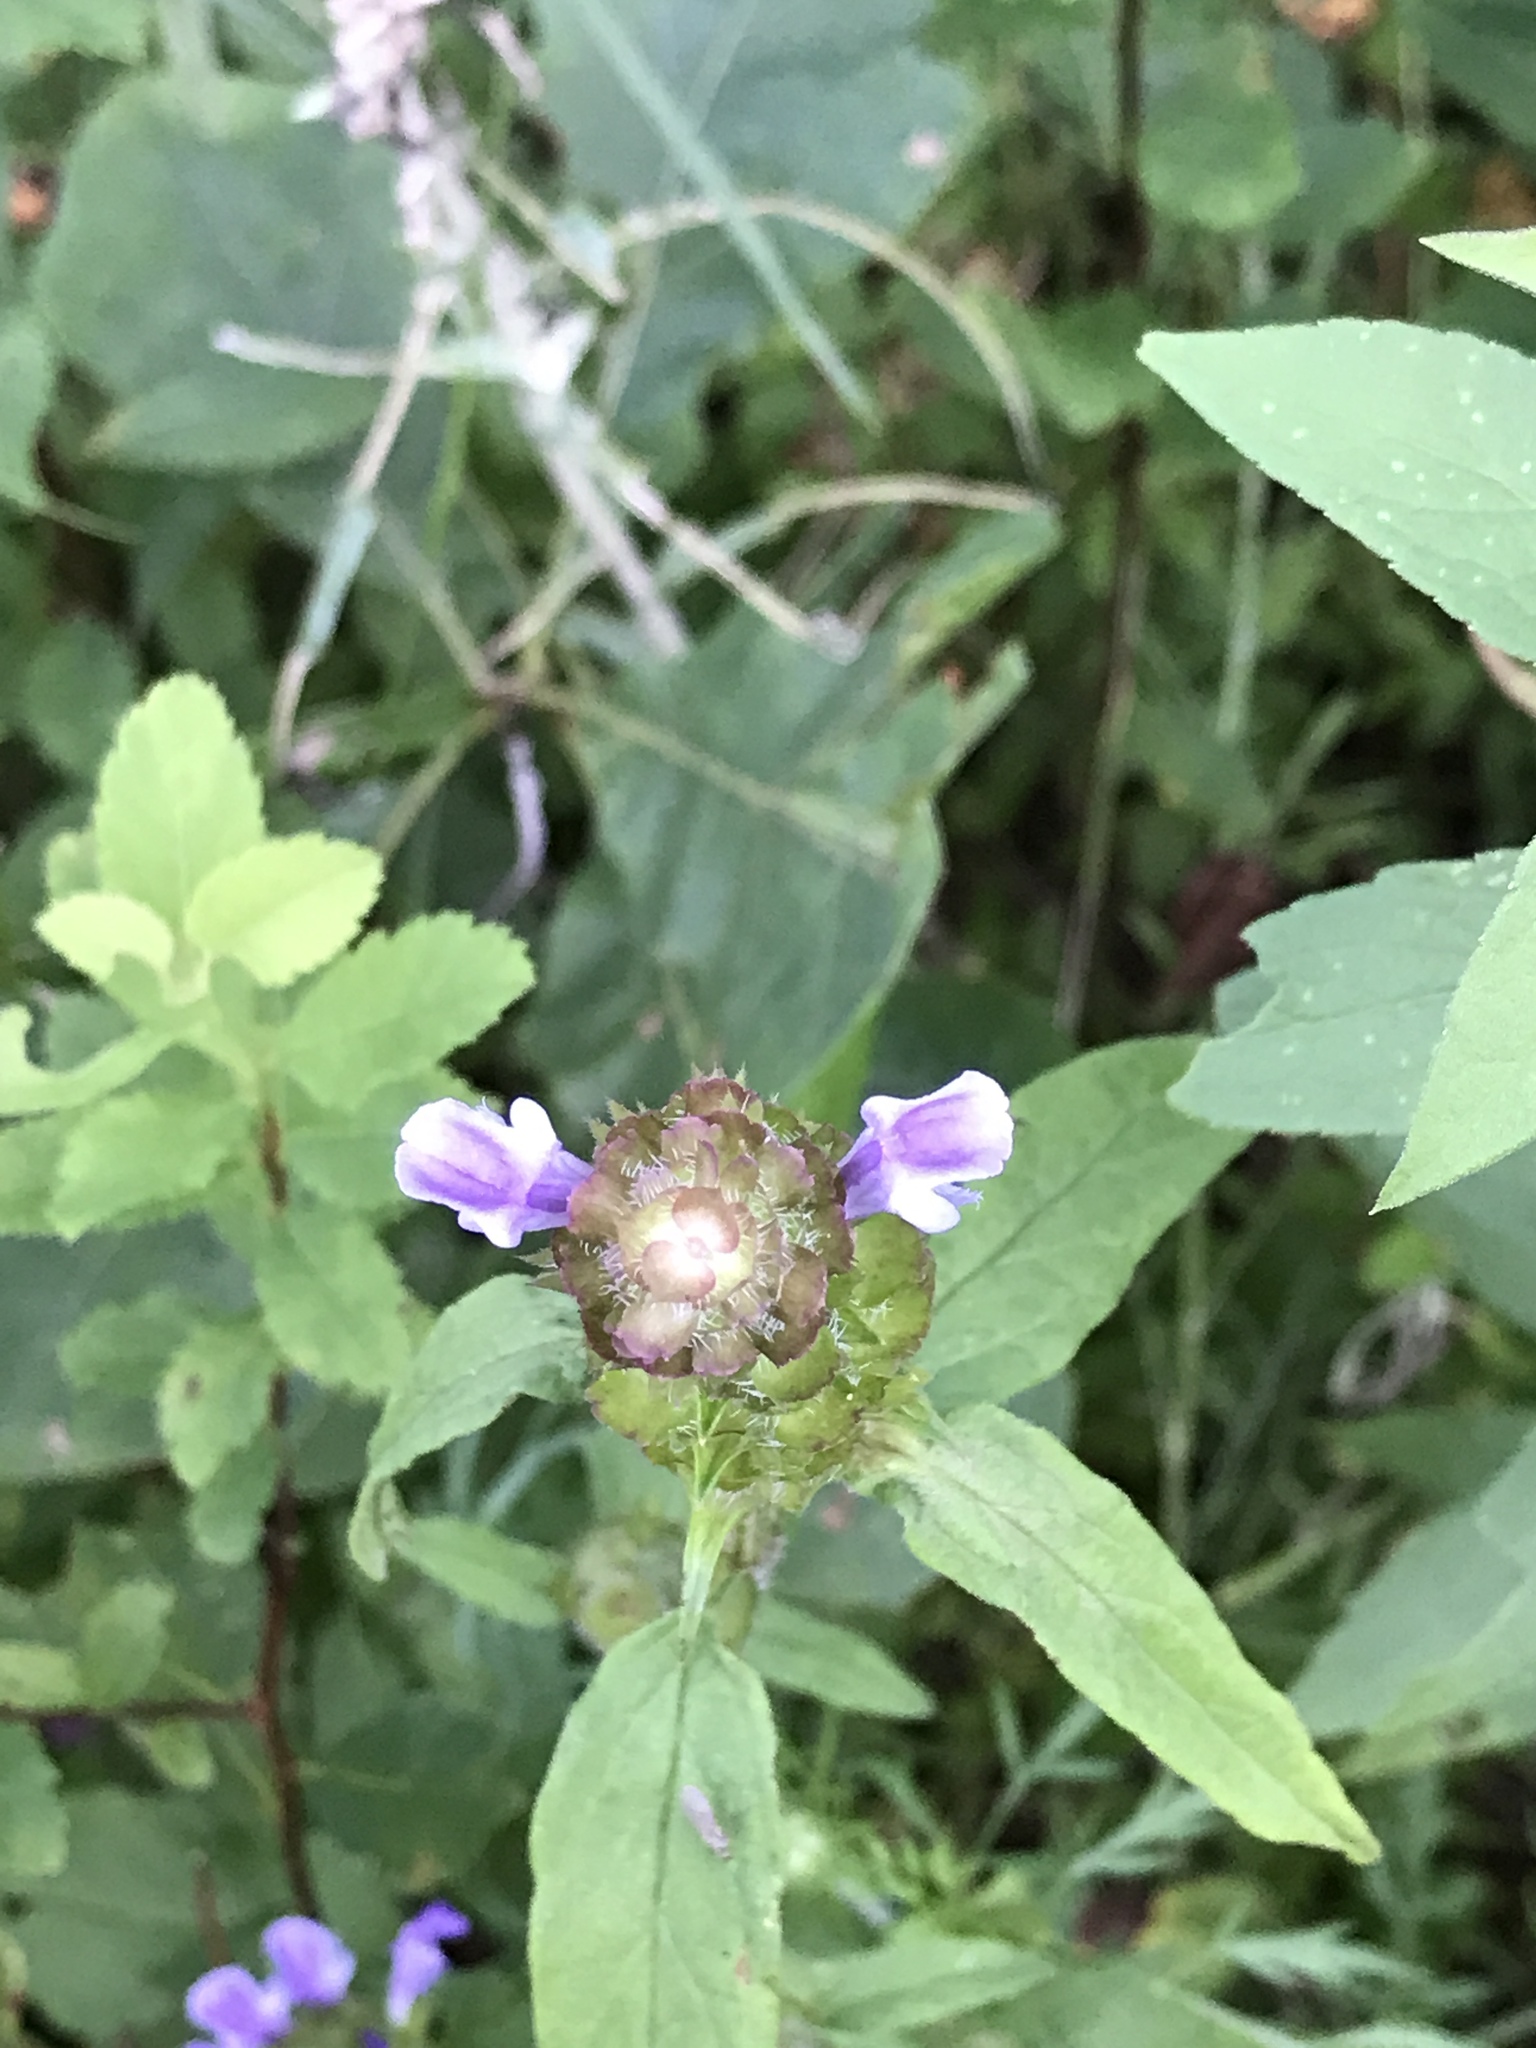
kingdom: Plantae
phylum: Tracheophyta
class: Magnoliopsida
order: Lamiales
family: Lamiaceae
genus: Prunella
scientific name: Prunella vulgaris
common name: Heal-all
